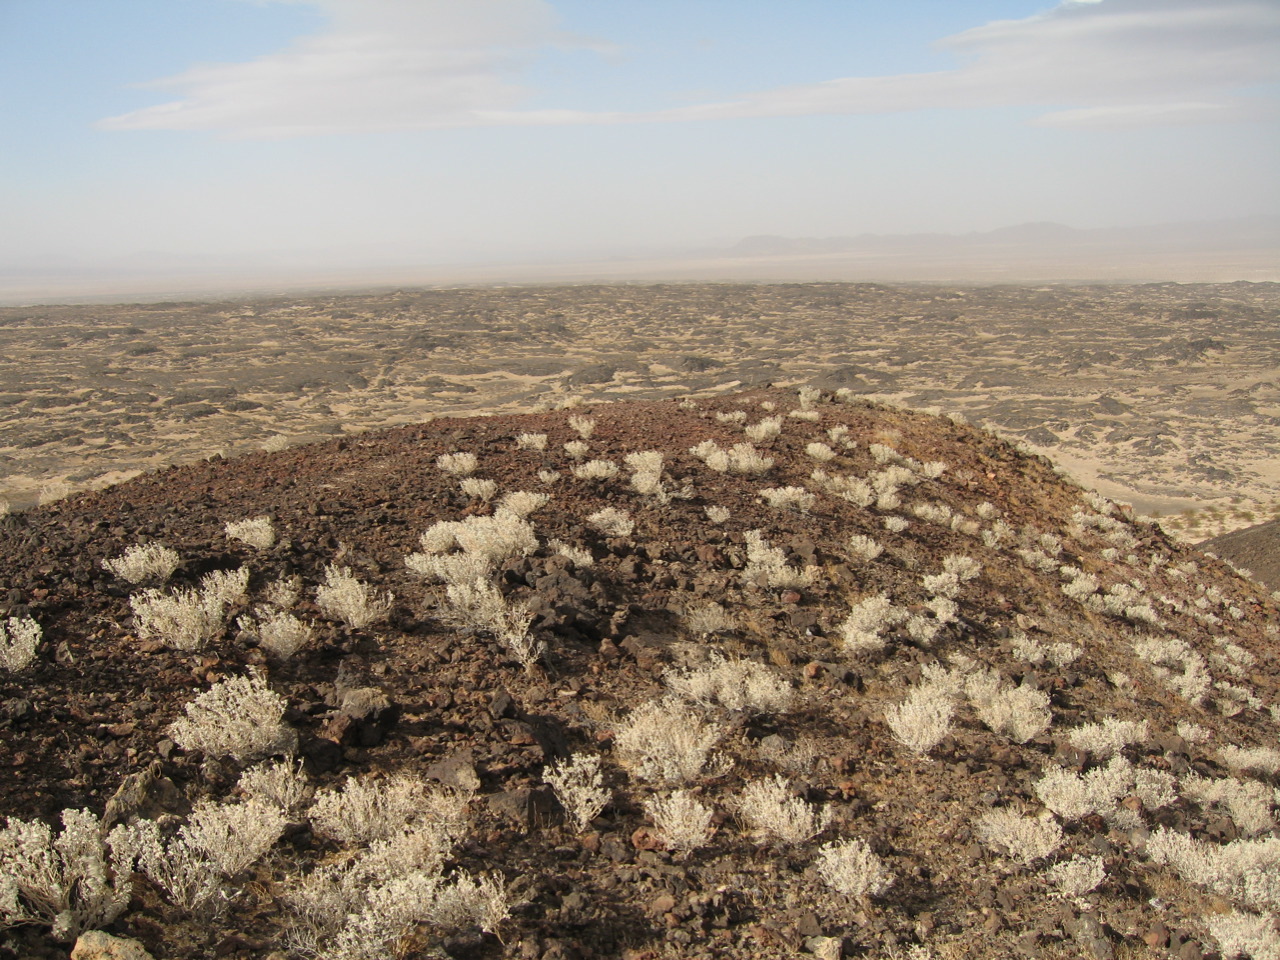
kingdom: Plantae
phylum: Tracheophyta
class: Magnoliopsida
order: Asterales
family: Asteraceae
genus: Encelia
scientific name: Encelia farinosa
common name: Brittlebush
